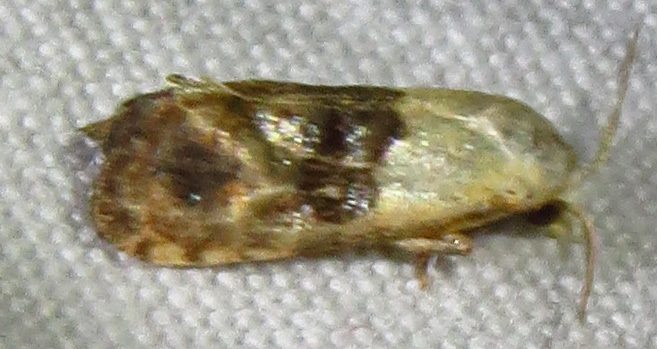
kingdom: Animalia
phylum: Arthropoda
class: Insecta
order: Lepidoptera
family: Tortricidae
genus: Eugnosta
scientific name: Eugnosta erigeronana
